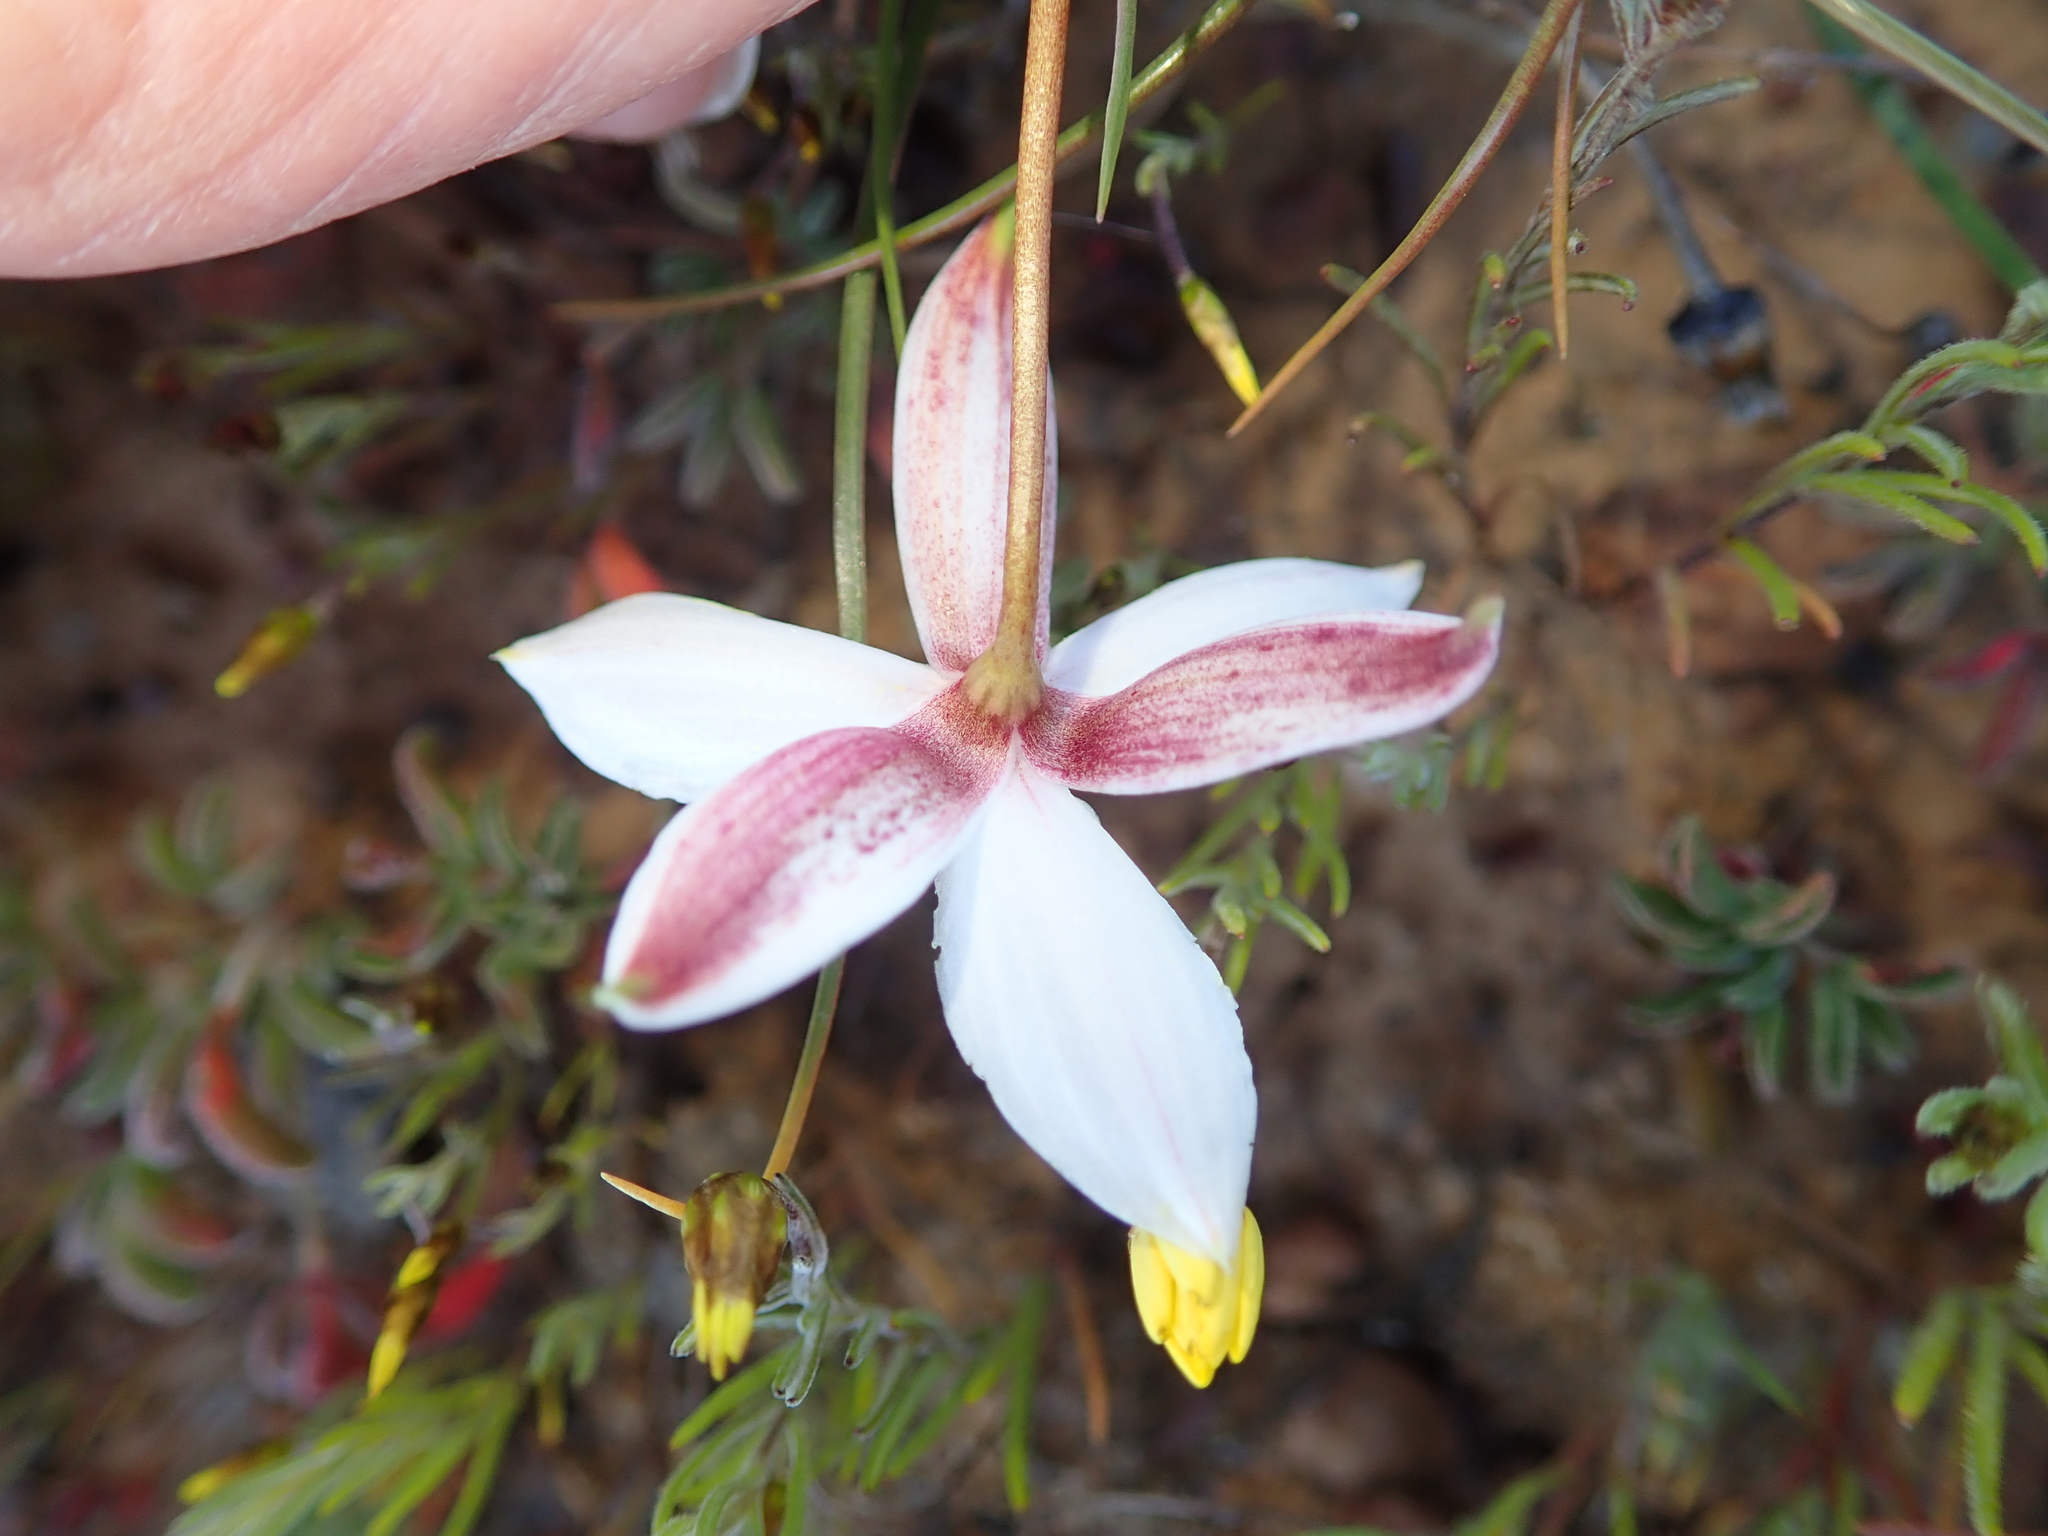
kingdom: Plantae
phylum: Tracheophyta
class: Liliopsida
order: Asparagales
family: Tecophilaeaceae
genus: Cyanella
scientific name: Cyanella alba
